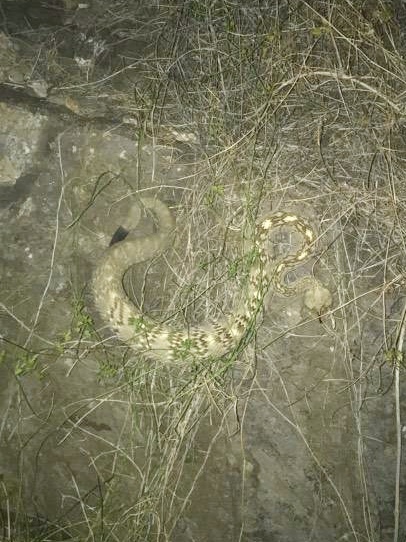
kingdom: Animalia
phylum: Chordata
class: Squamata
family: Viperidae
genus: Crotalus
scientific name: Crotalus ornatus
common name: Black-tailed rattlesnake
